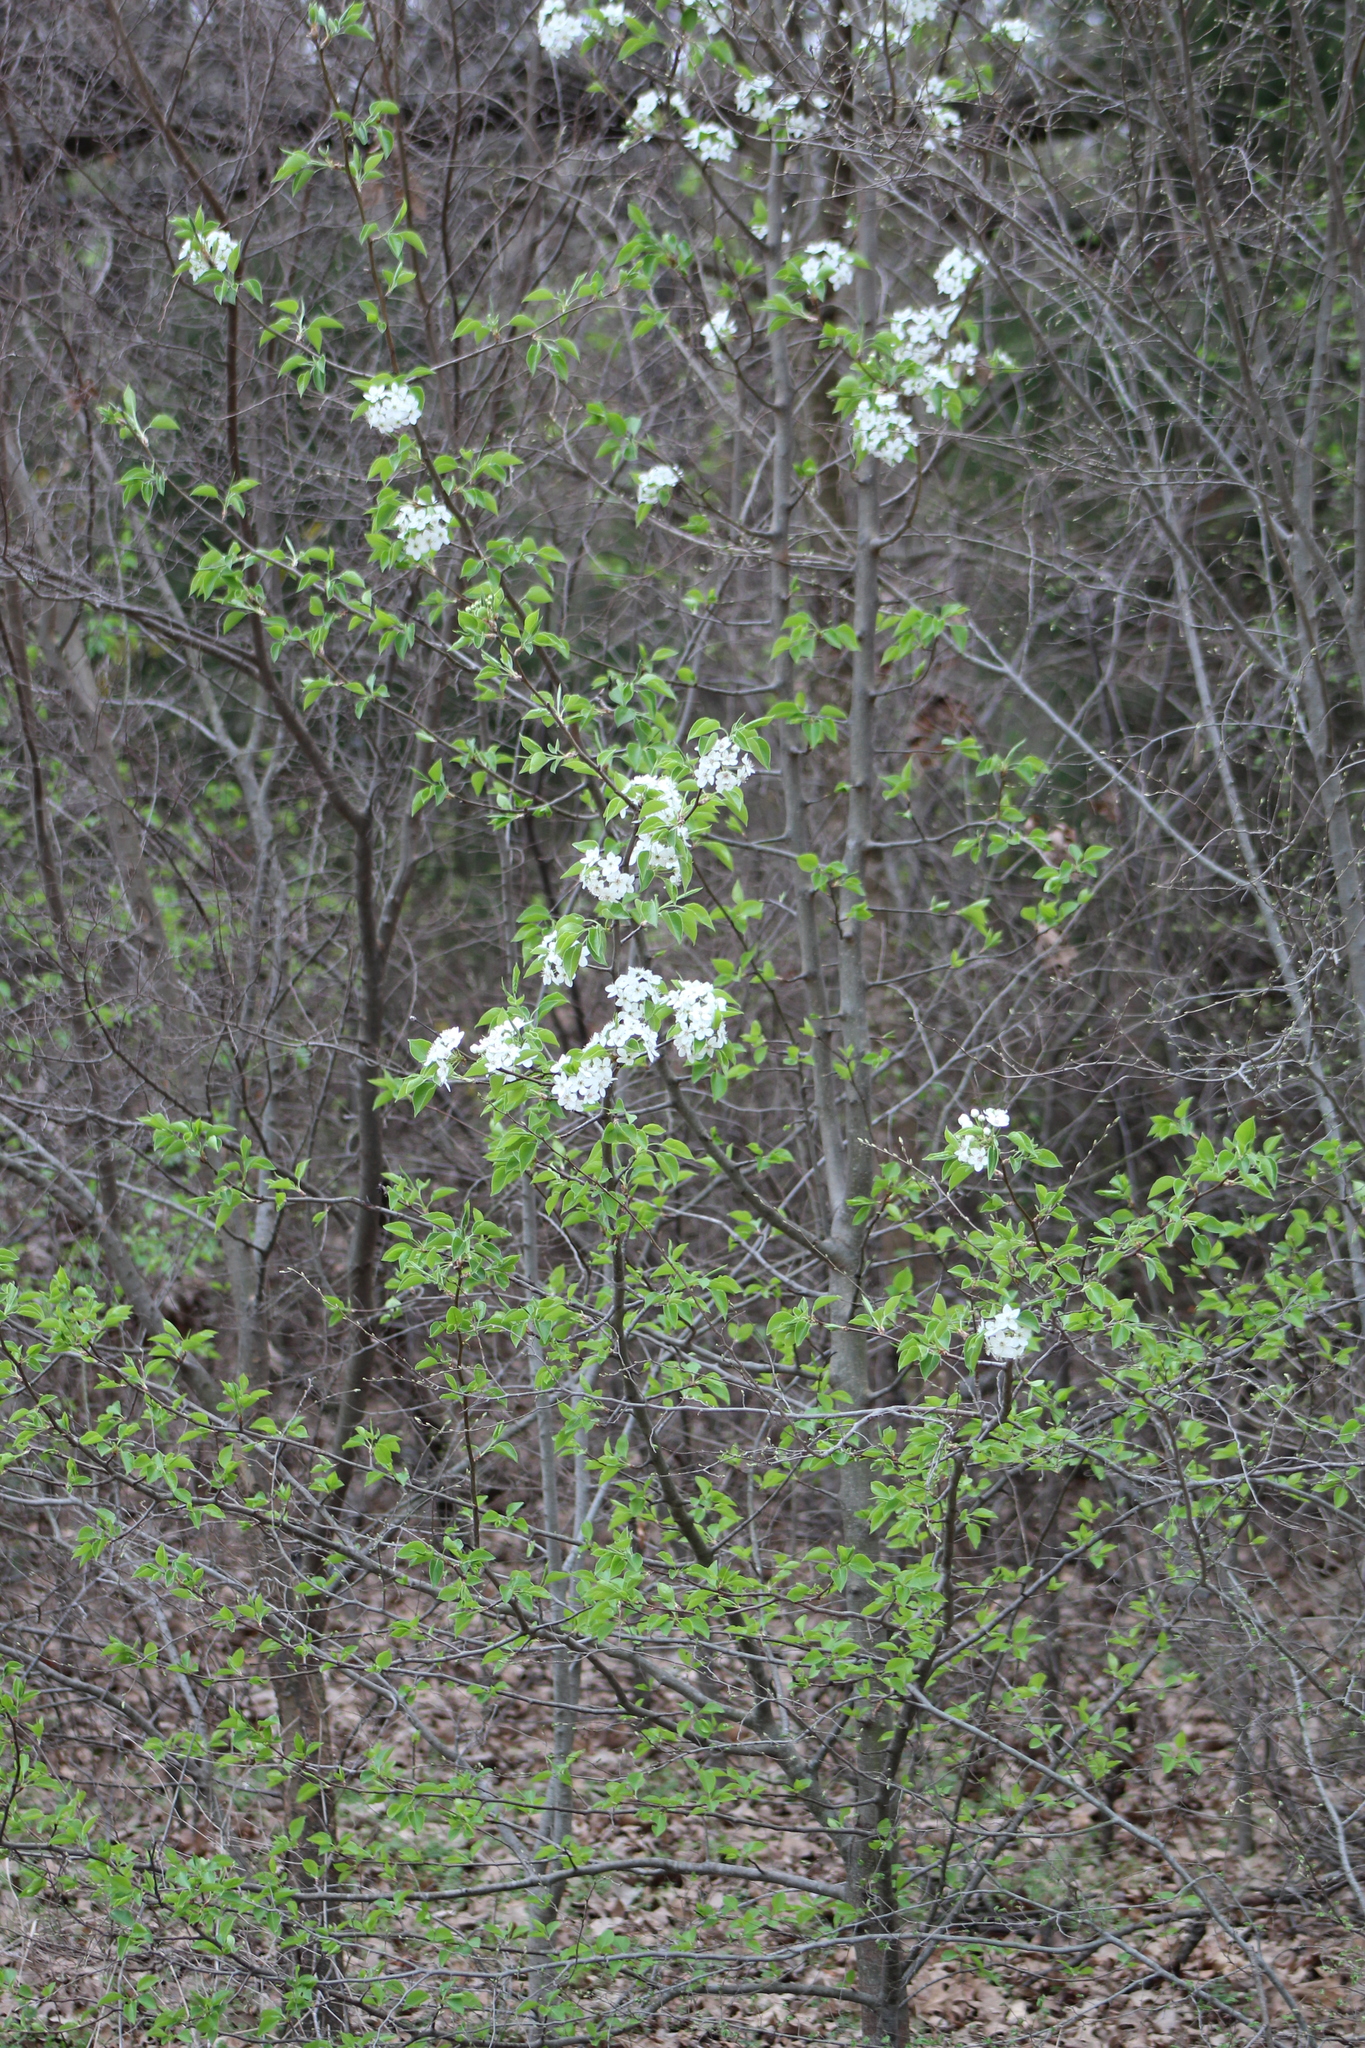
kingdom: Plantae
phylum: Tracheophyta
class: Magnoliopsida
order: Rosales
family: Rosaceae
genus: Pyrus
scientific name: Pyrus calleryana
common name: Callery pear
